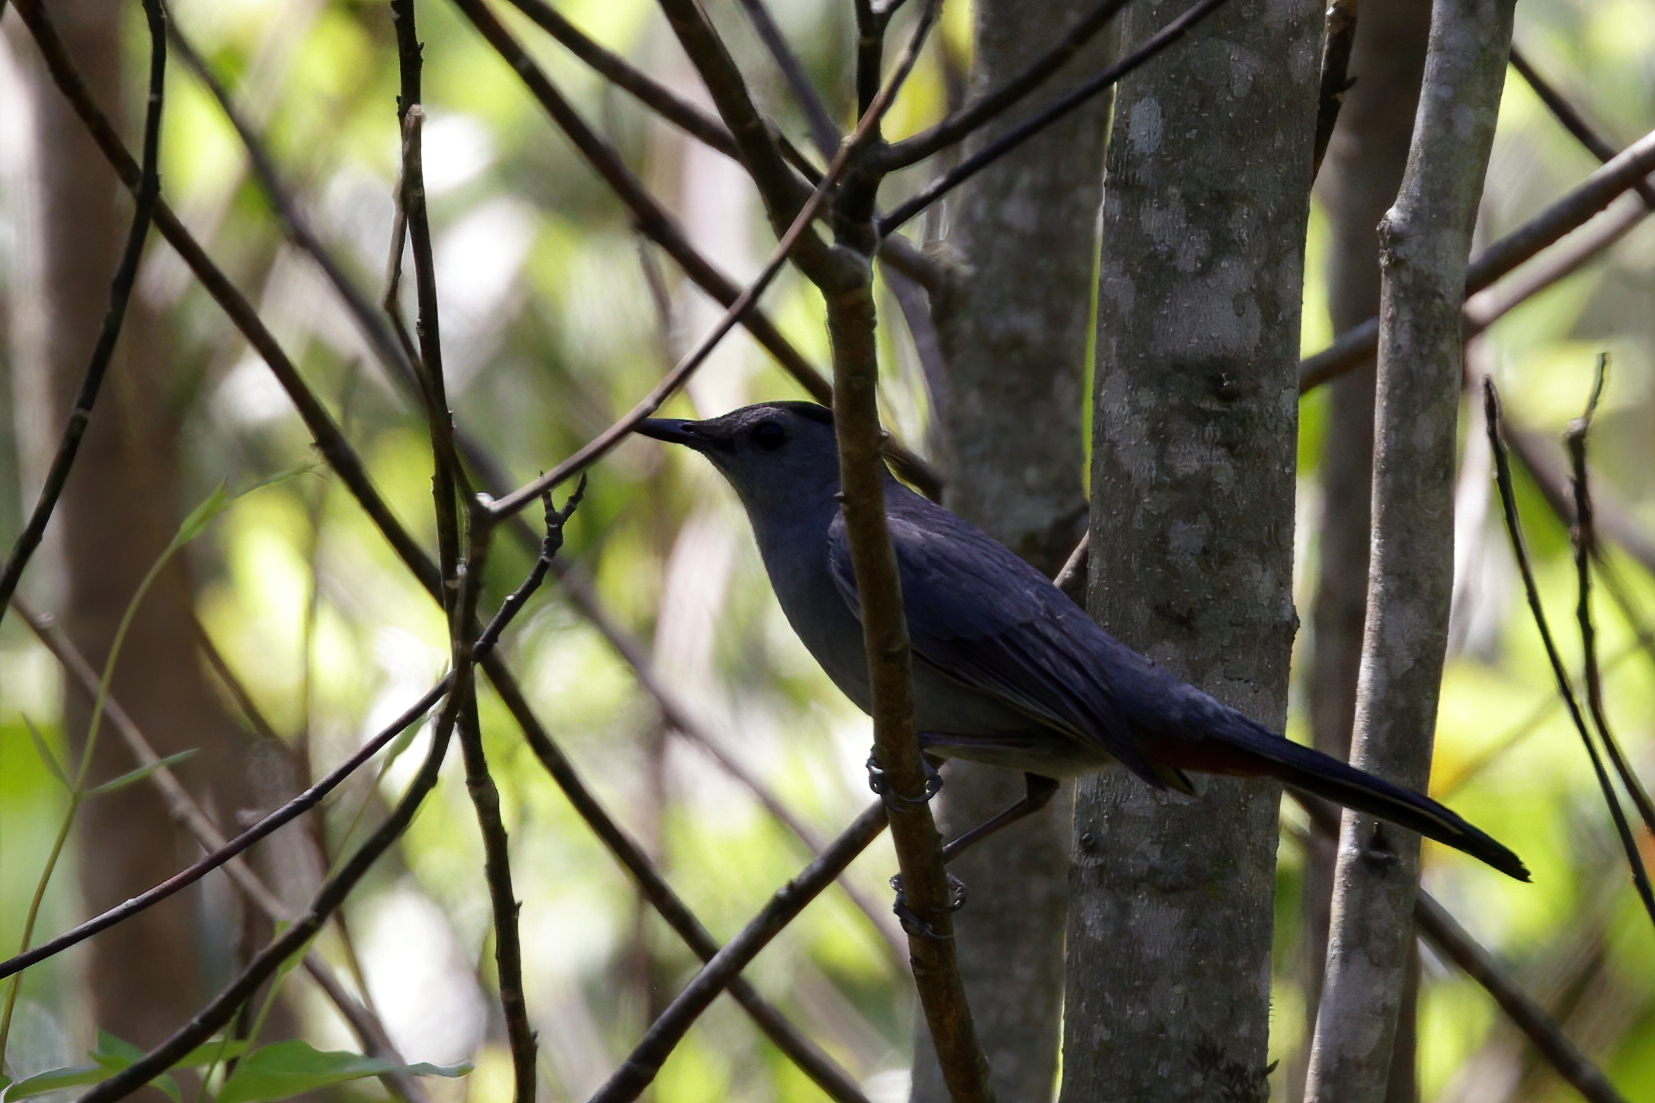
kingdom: Animalia
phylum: Chordata
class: Aves
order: Passeriformes
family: Mimidae
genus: Dumetella
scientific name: Dumetella carolinensis
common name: Gray catbird
